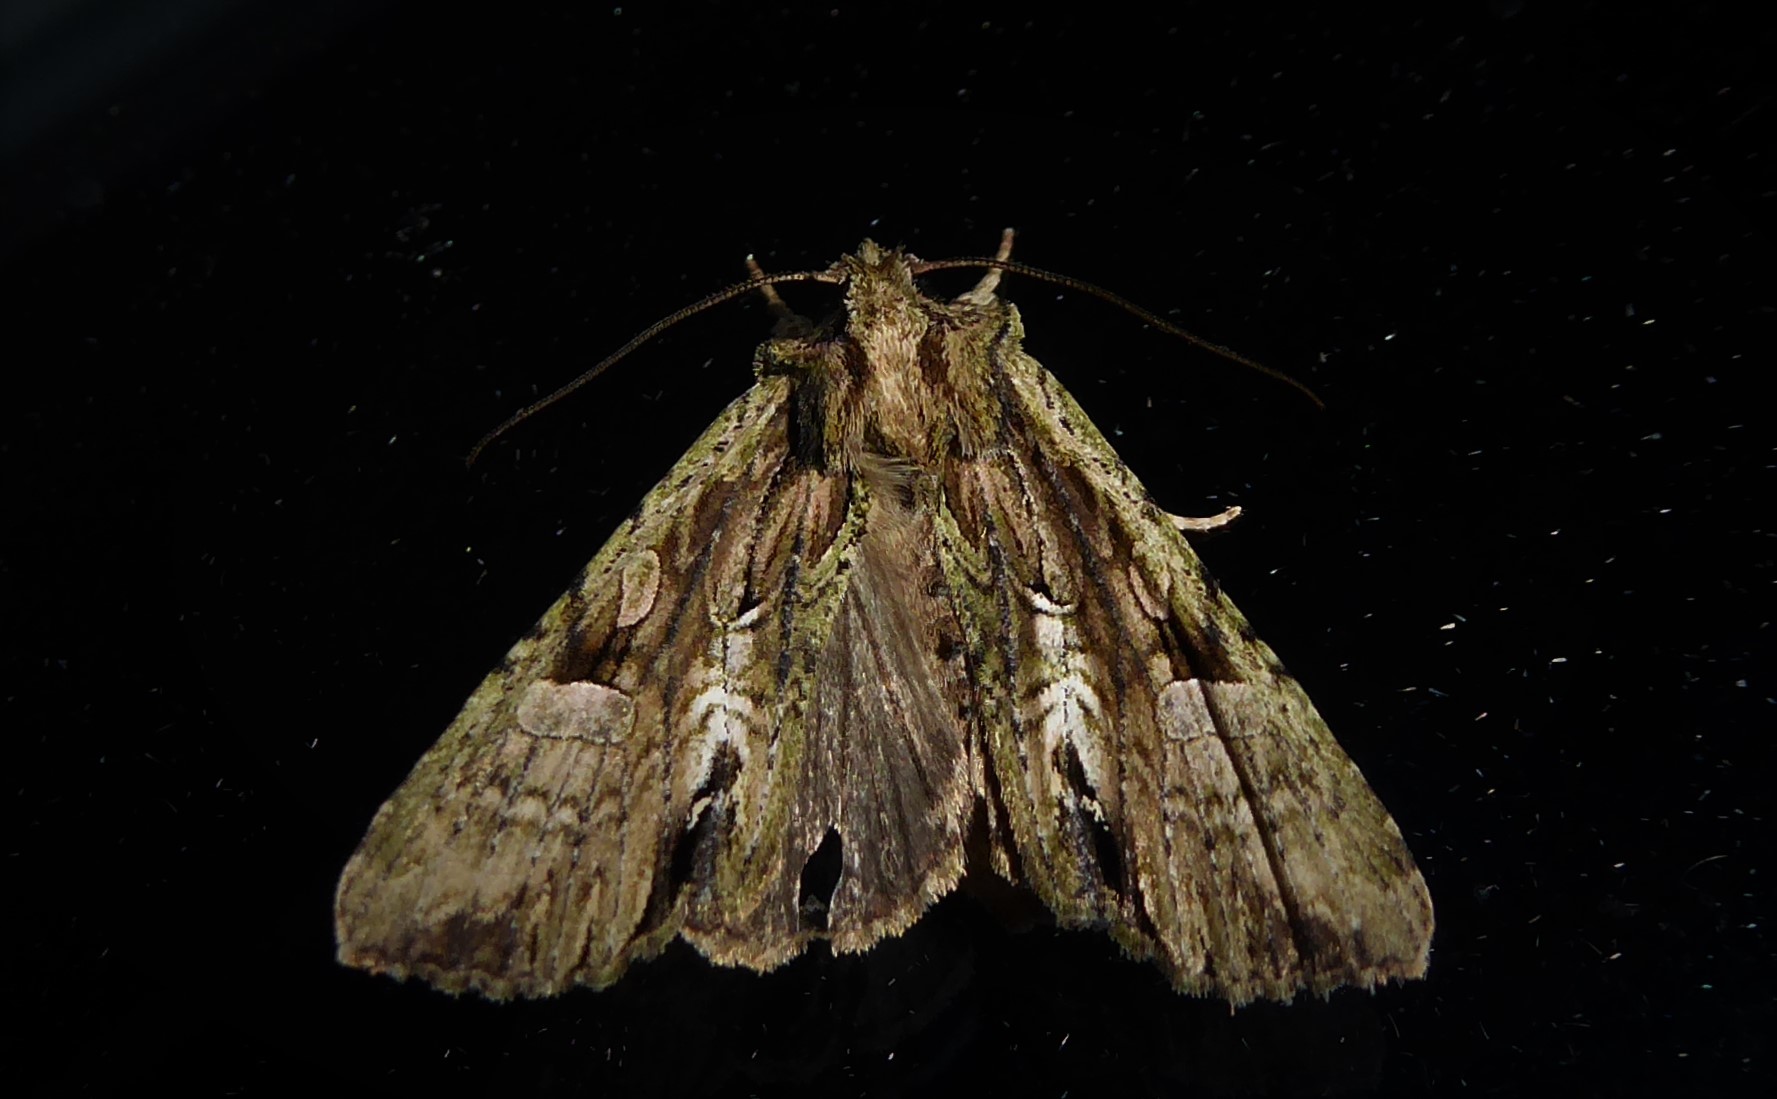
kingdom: Animalia
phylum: Arthropoda
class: Insecta
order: Lepidoptera
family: Noctuidae
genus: Meterana
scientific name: Meterana decorata
